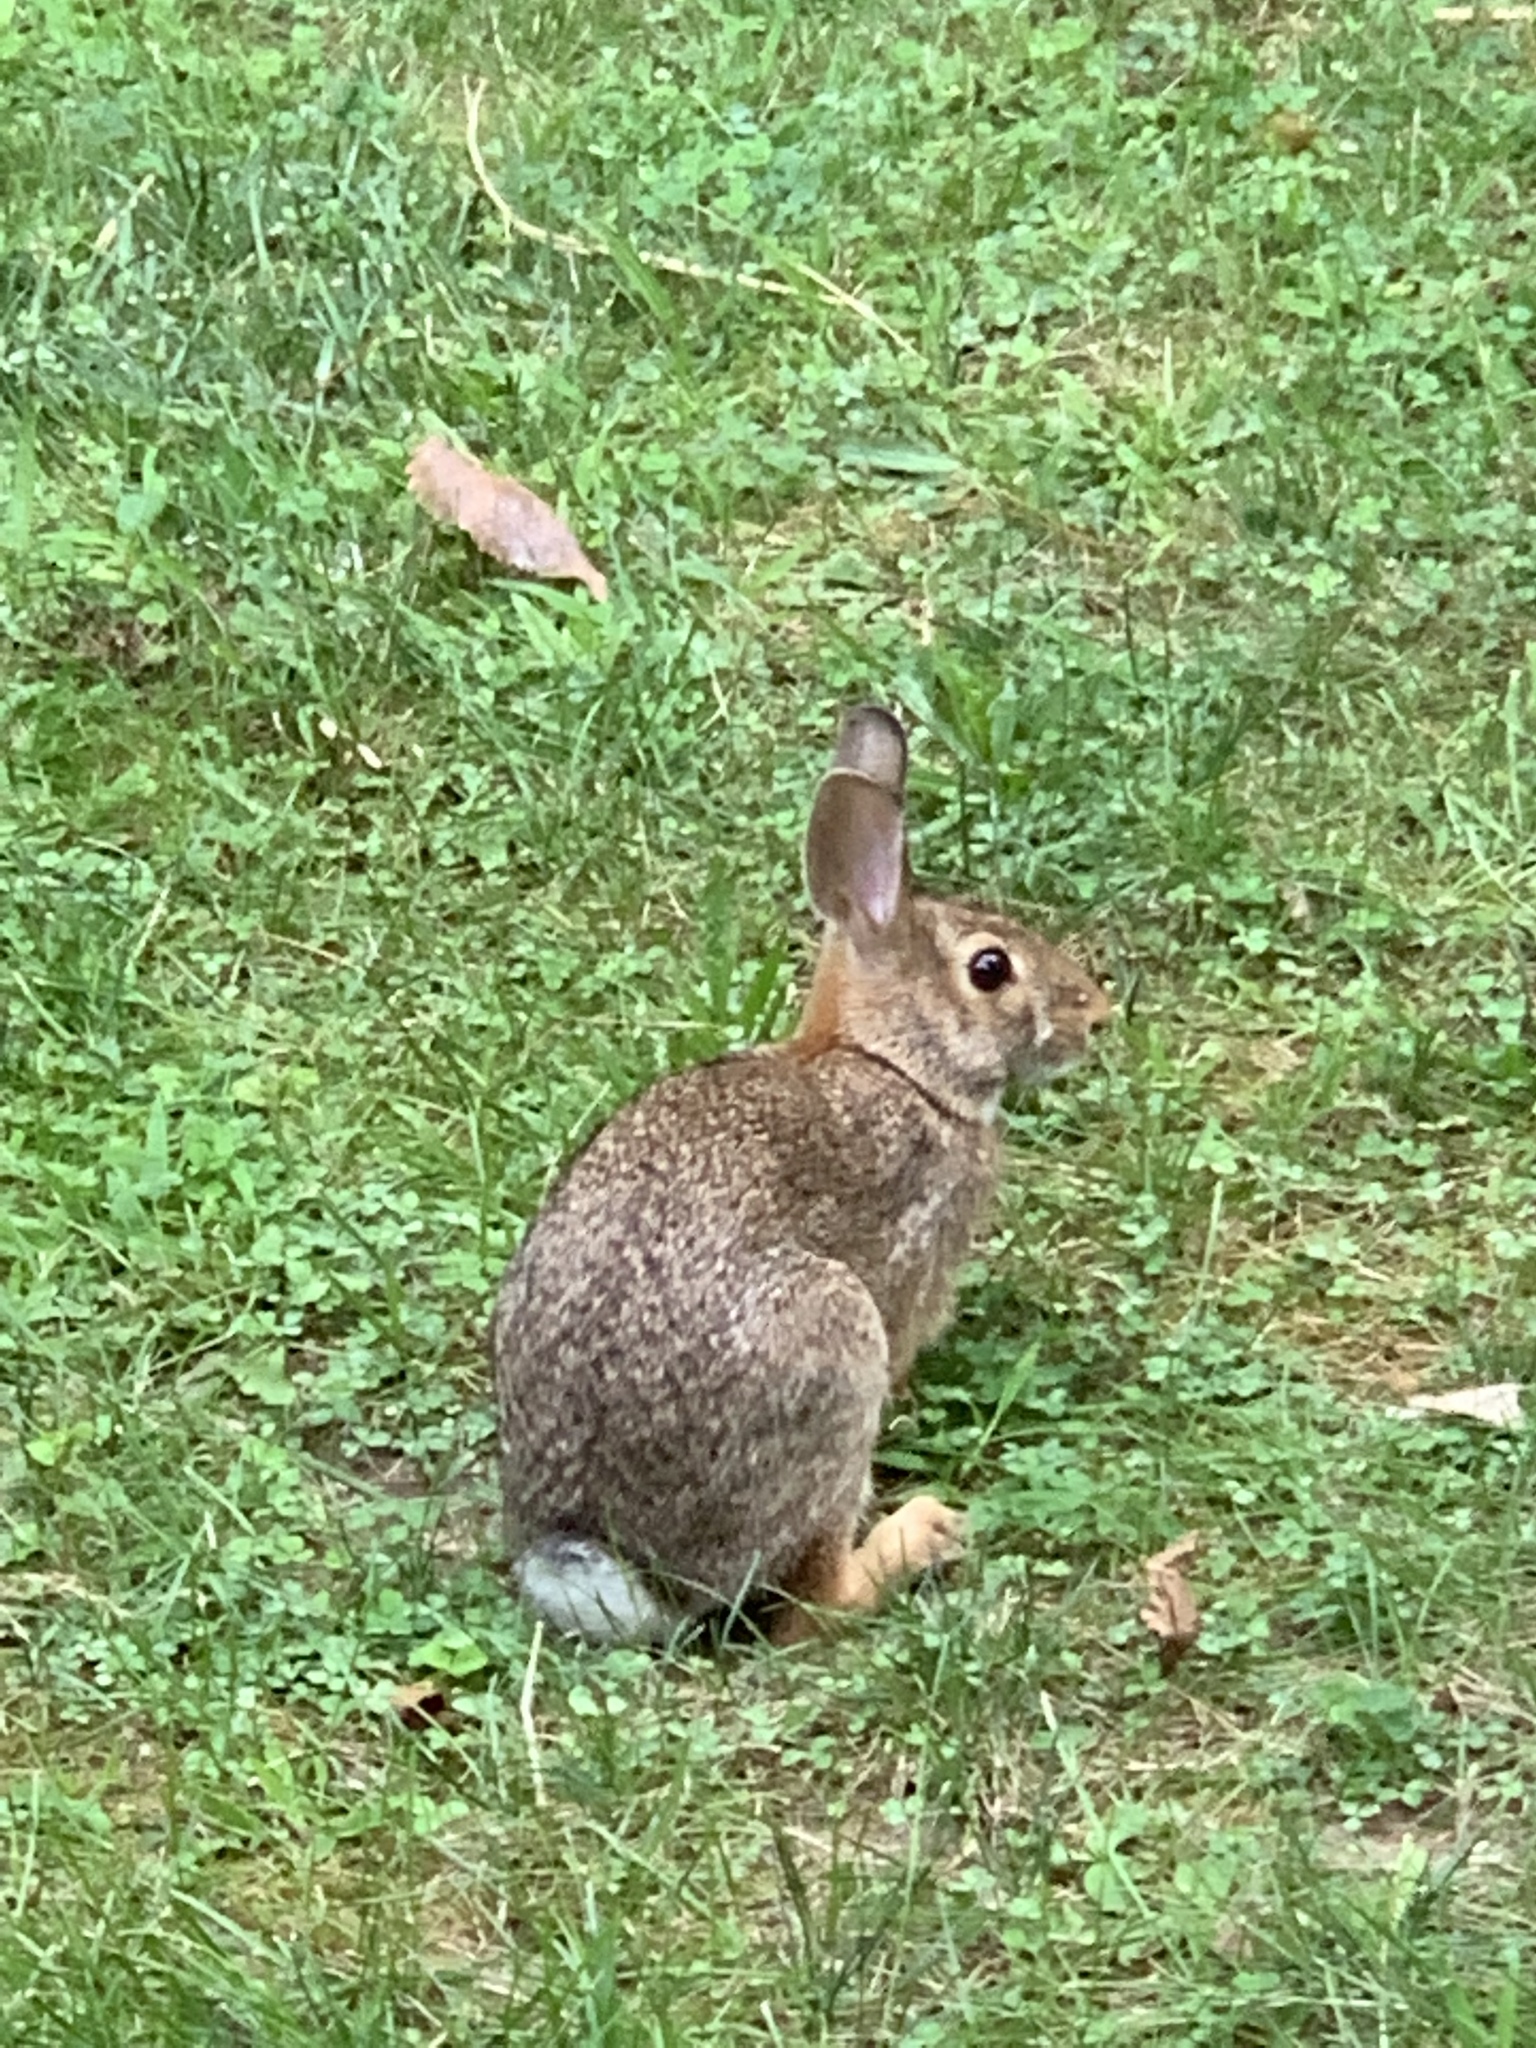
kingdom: Animalia
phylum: Chordata
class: Mammalia
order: Lagomorpha
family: Leporidae
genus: Sylvilagus
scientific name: Sylvilagus floridanus
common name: Eastern cottontail
